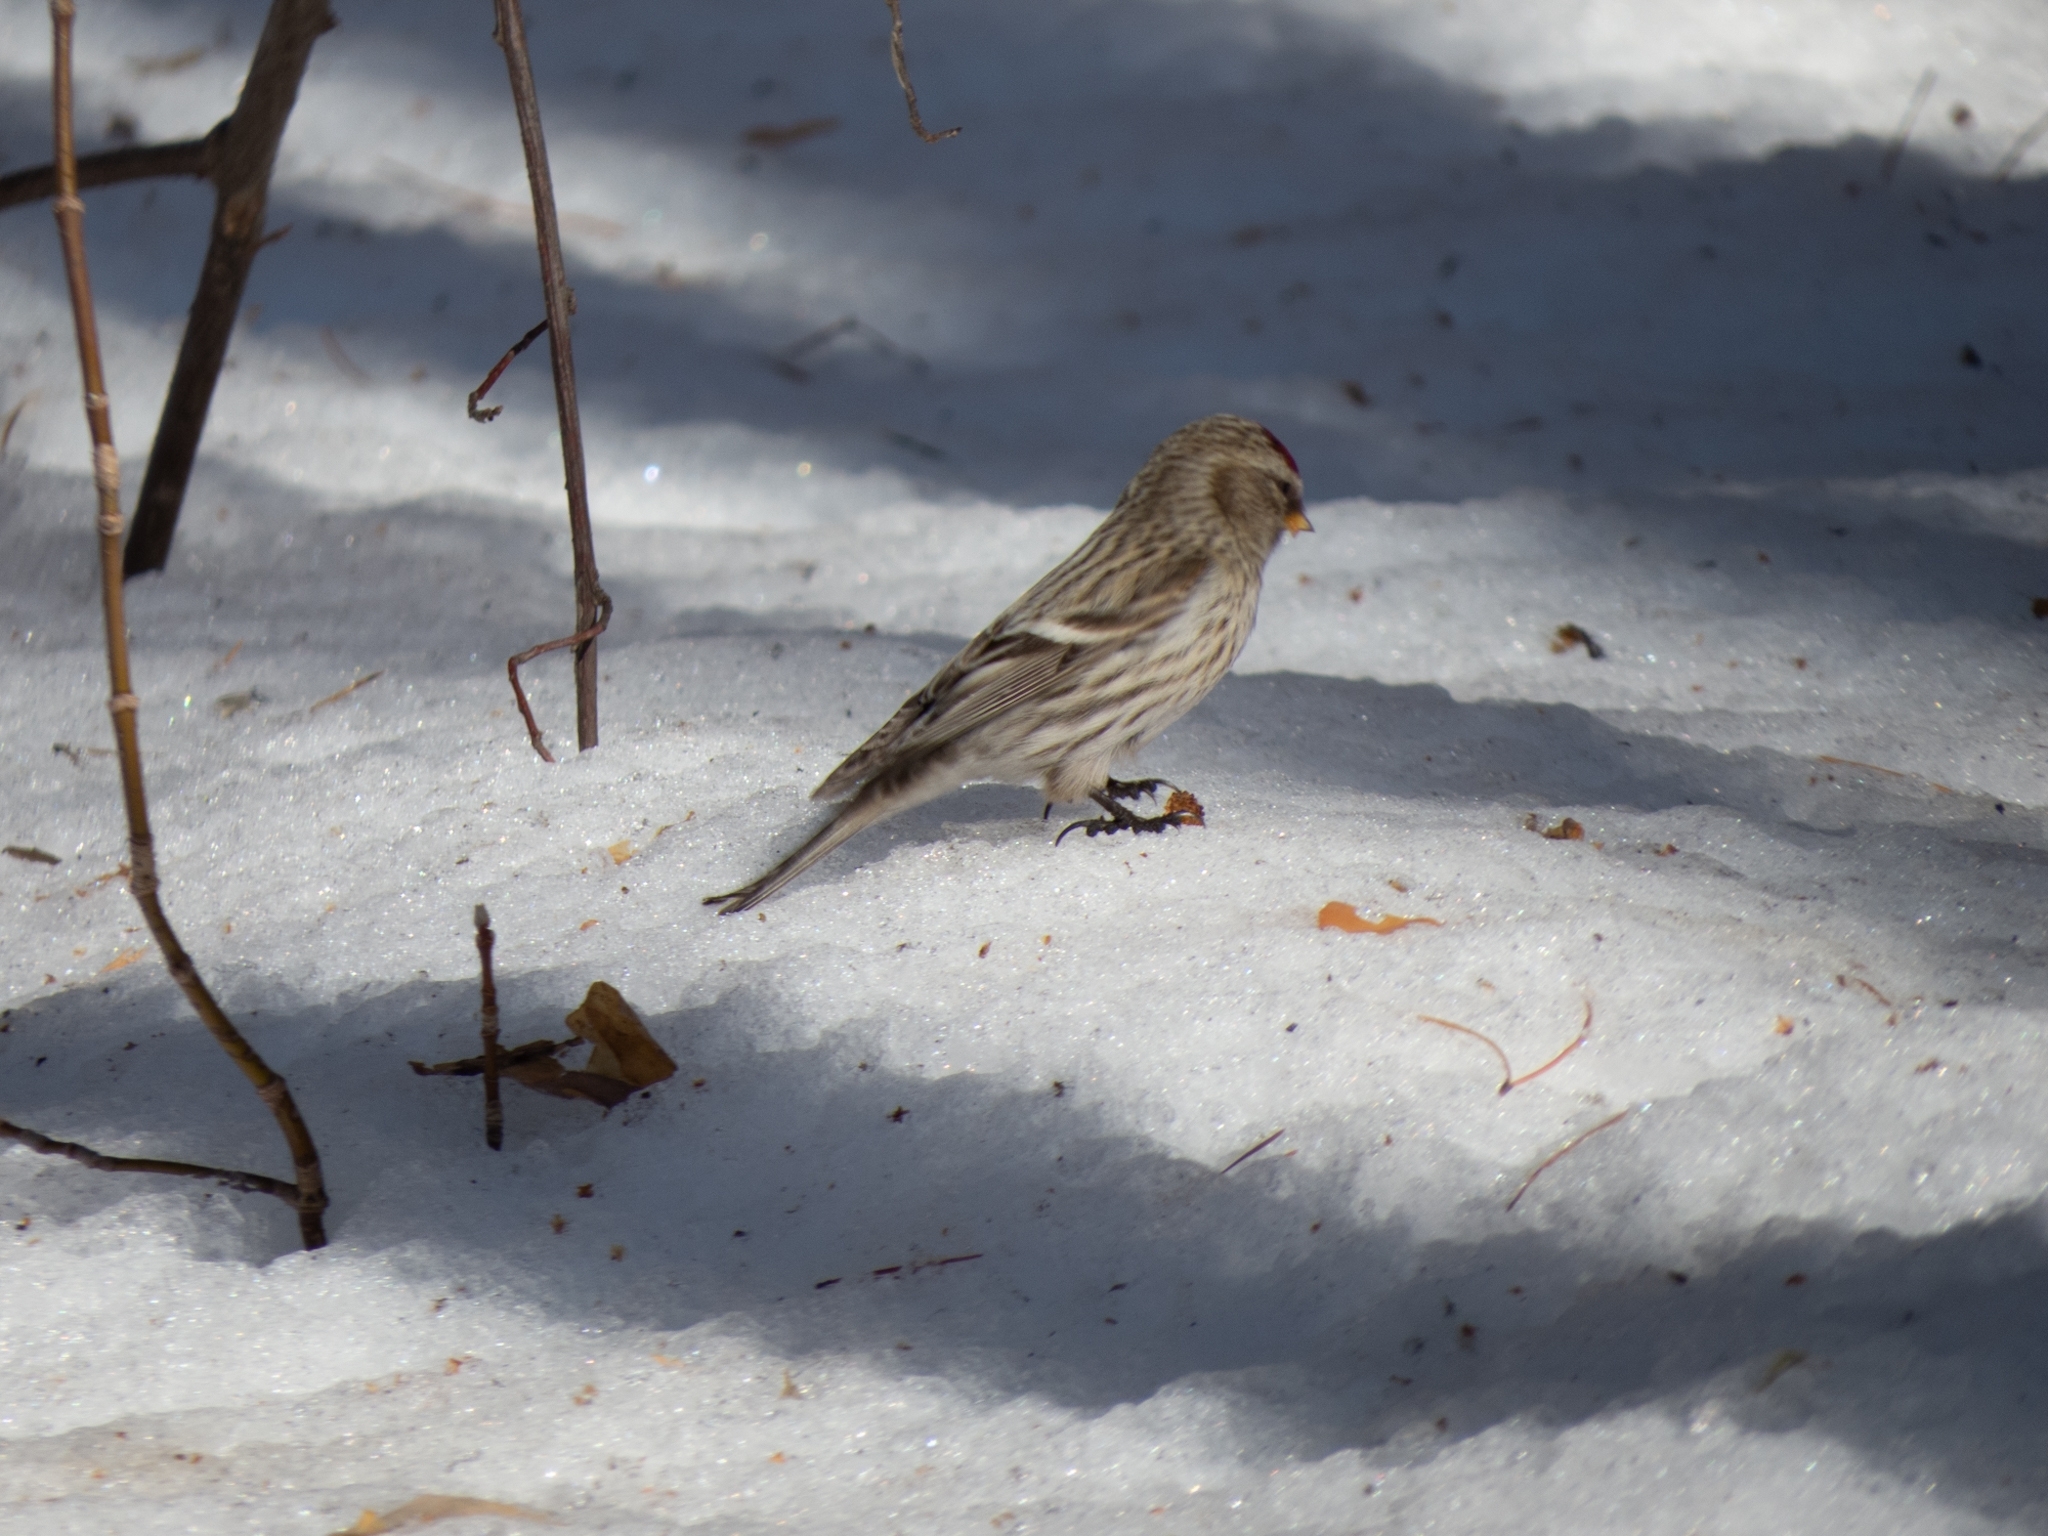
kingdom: Animalia
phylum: Chordata
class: Aves
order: Passeriformes
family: Fringillidae
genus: Acanthis
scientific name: Acanthis flammea
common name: Common redpoll
